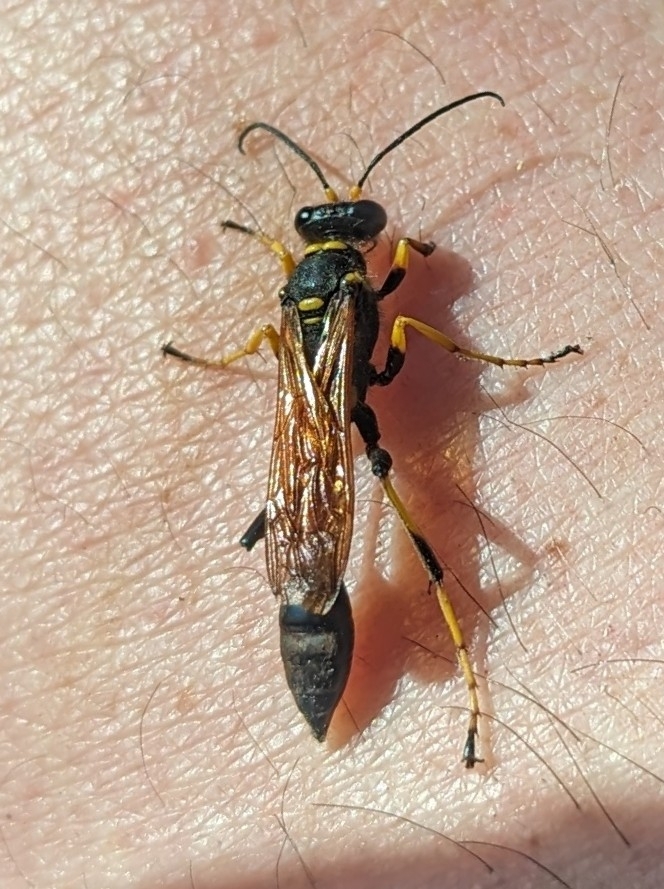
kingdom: Animalia
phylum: Arthropoda
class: Insecta
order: Hymenoptera
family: Sphecidae
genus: Sceliphron
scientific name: Sceliphron caementarium
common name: Mud dauber
